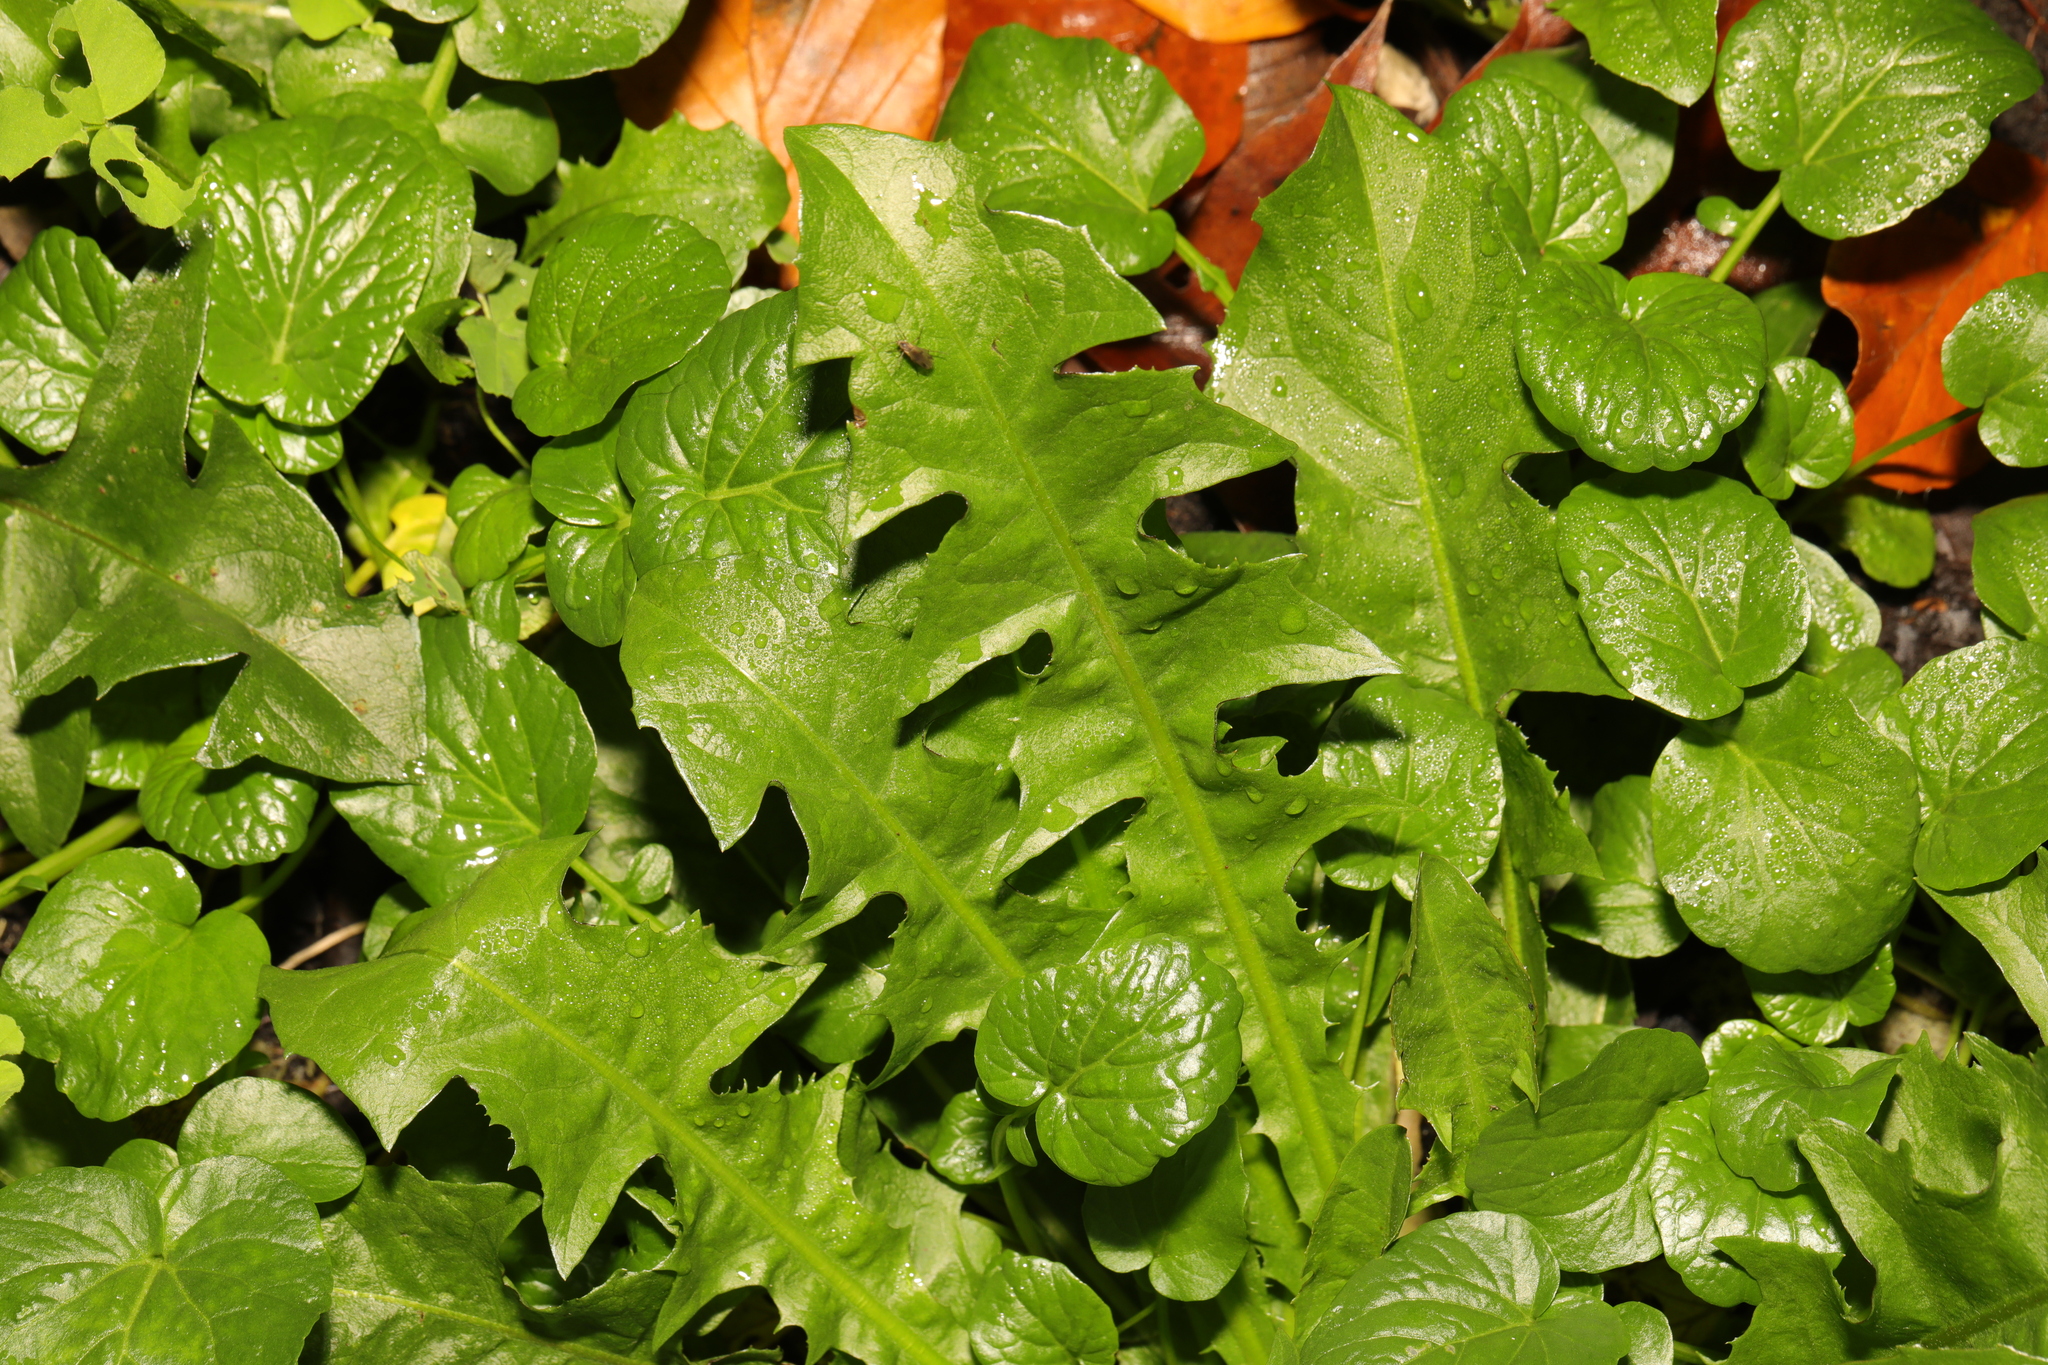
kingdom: Plantae
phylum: Tracheophyta
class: Magnoliopsida
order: Asterales
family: Asteraceae
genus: Taraxacum
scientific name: Taraxacum officinale
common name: Common dandelion
